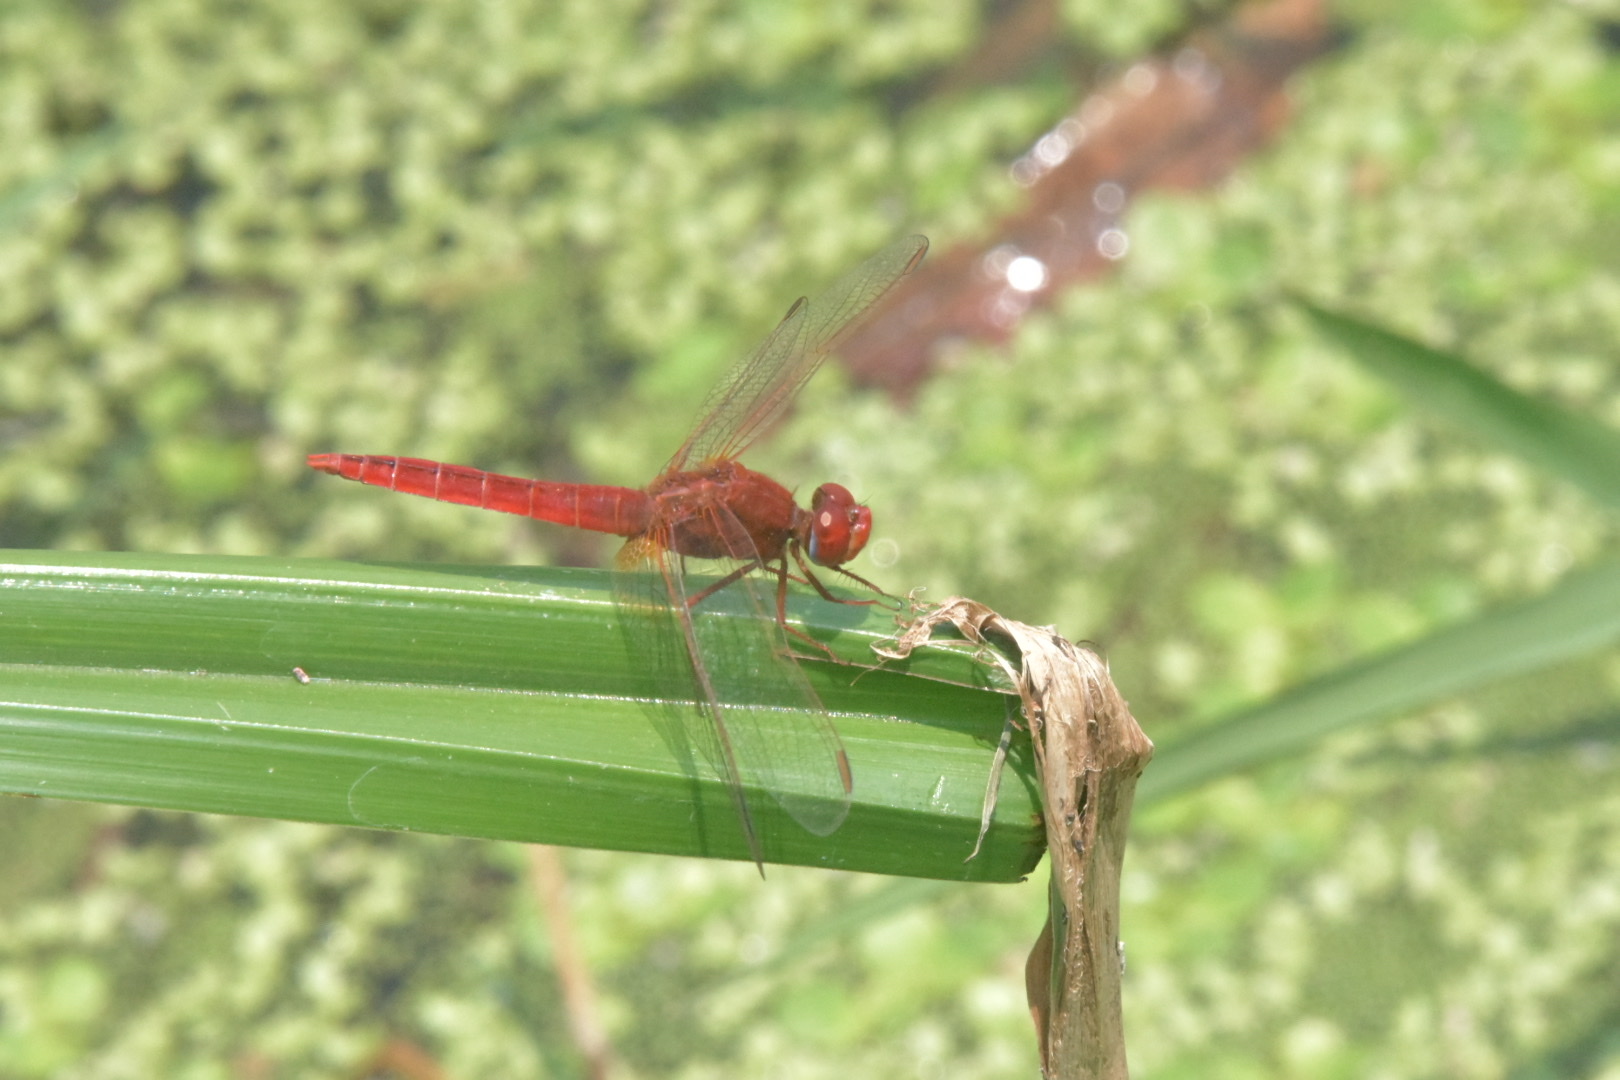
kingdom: Animalia
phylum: Arthropoda
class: Insecta
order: Odonata
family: Libellulidae
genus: Crocothemis
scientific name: Crocothemis erythraea
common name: Scarlet dragonfly
